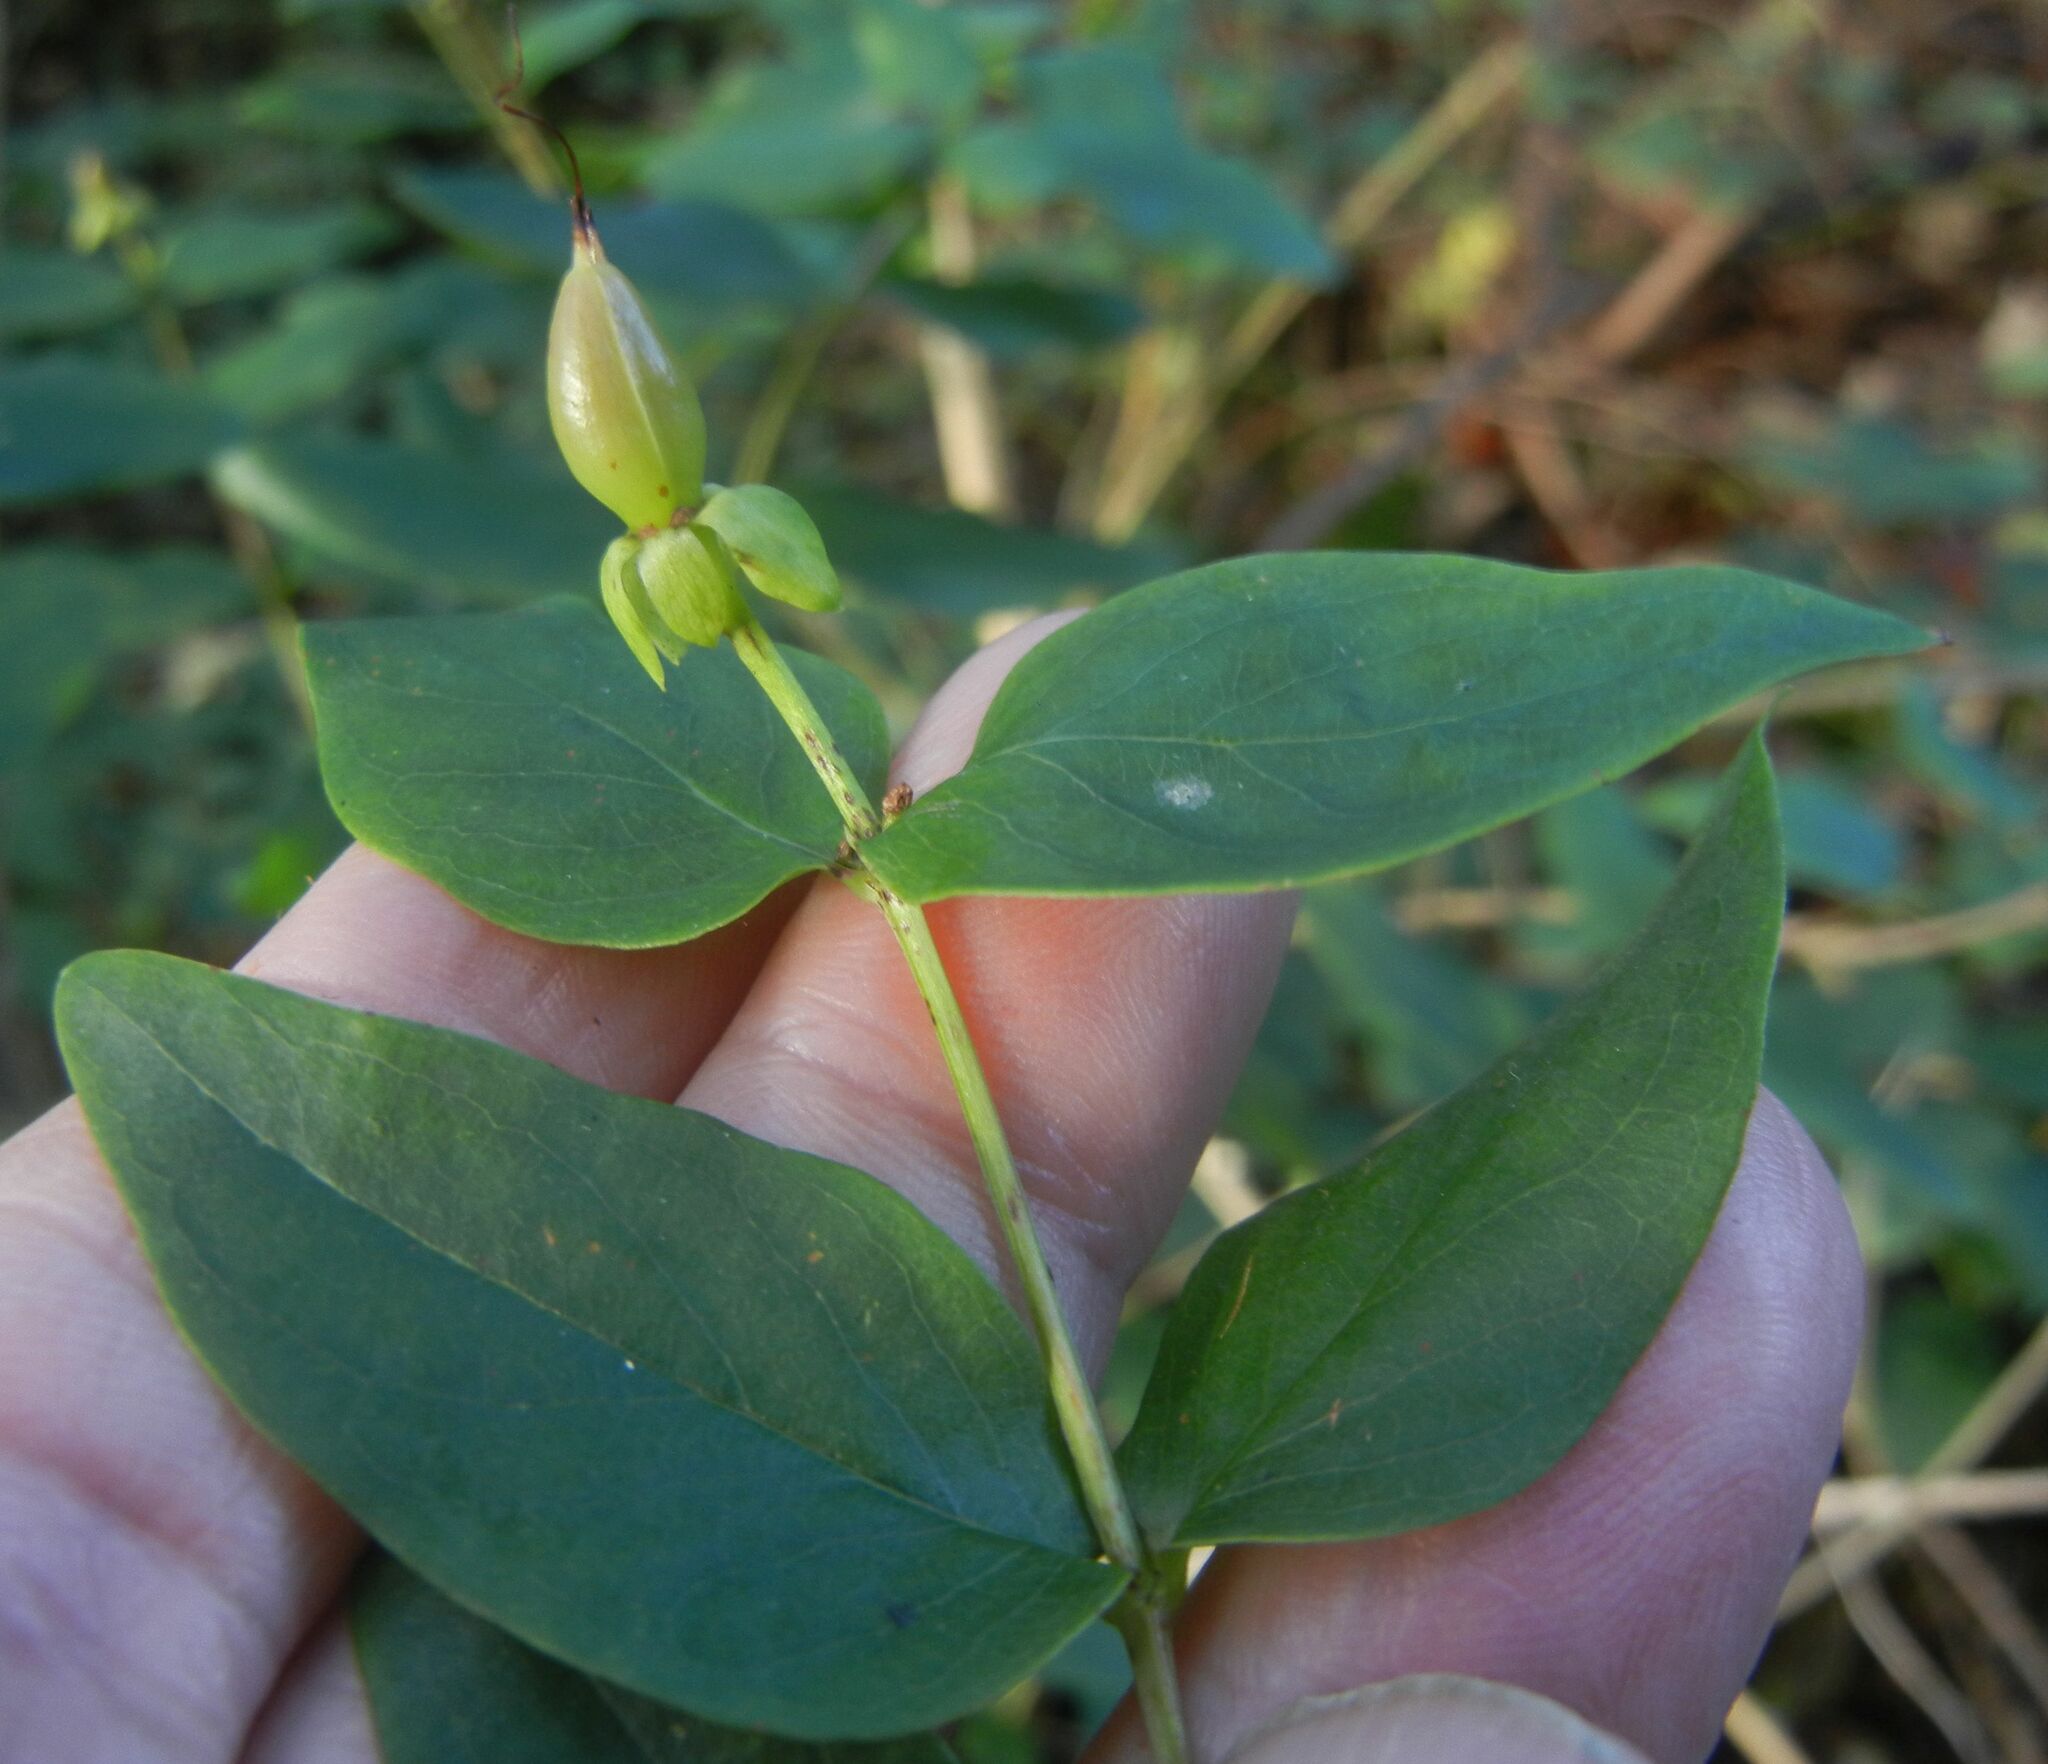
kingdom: Plantae
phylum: Tracheophyta
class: Magnoliopsida
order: Malpighiales
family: Hypericaceae
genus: Hypericum
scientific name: Hypericum inodorum
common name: Tall tutsan
